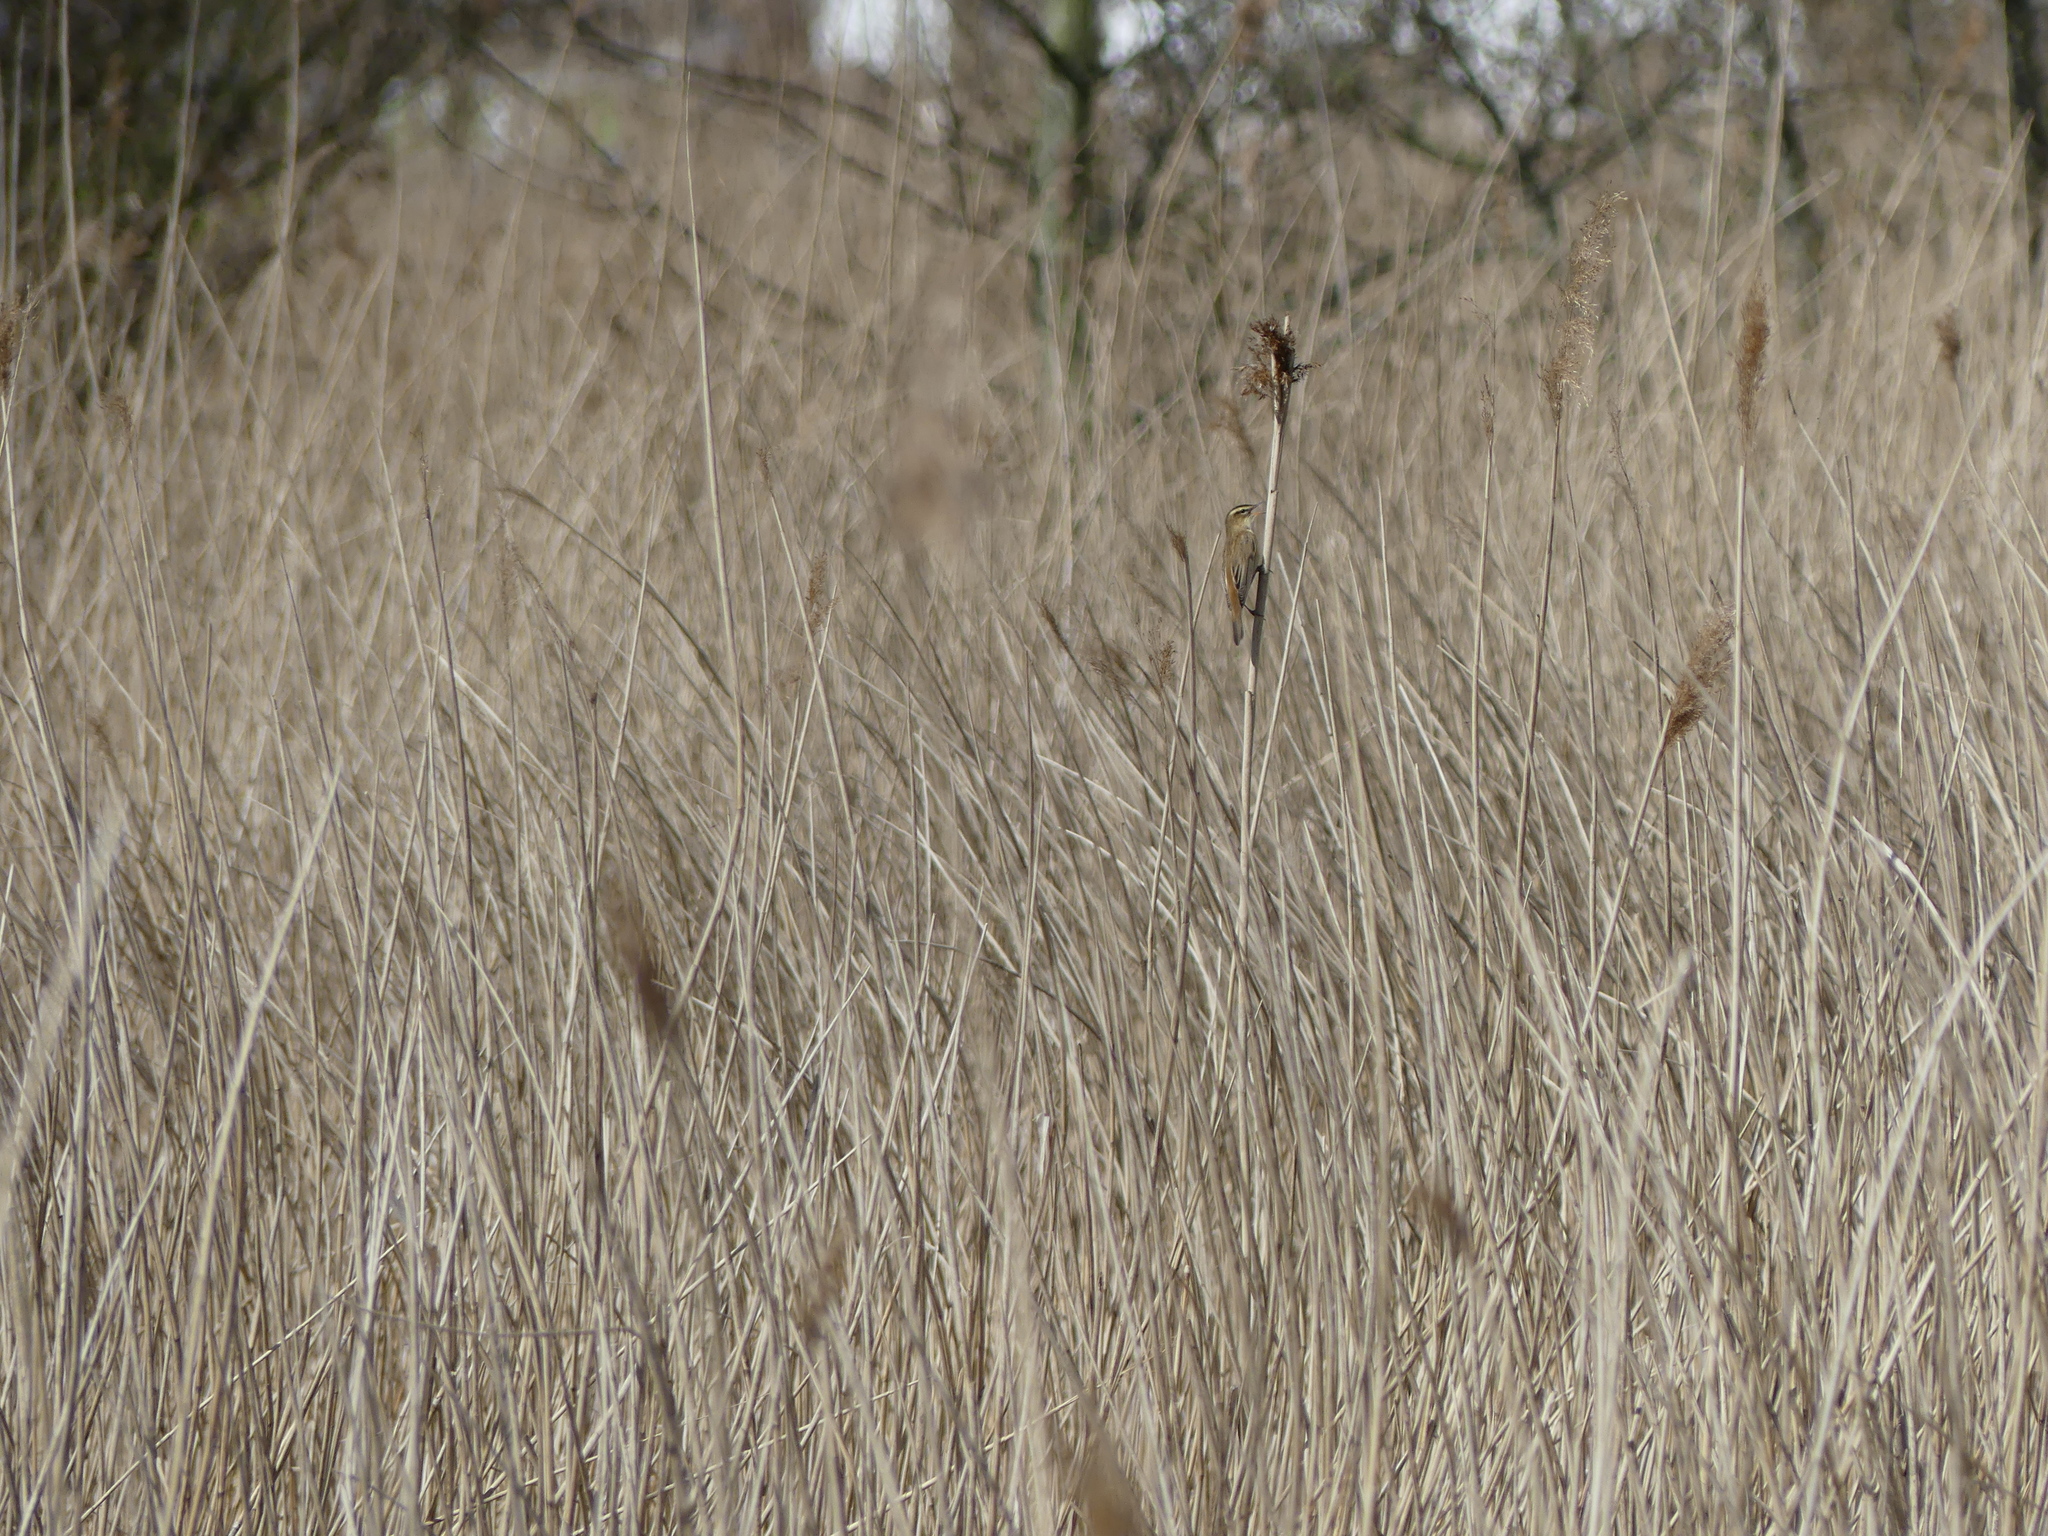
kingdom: Animalia
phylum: Chordata
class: Aves
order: Passeriformes
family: Acrocephalidae
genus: Acrocephalus
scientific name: Acrocephalus schoenobaenus
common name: Sedge warbler
